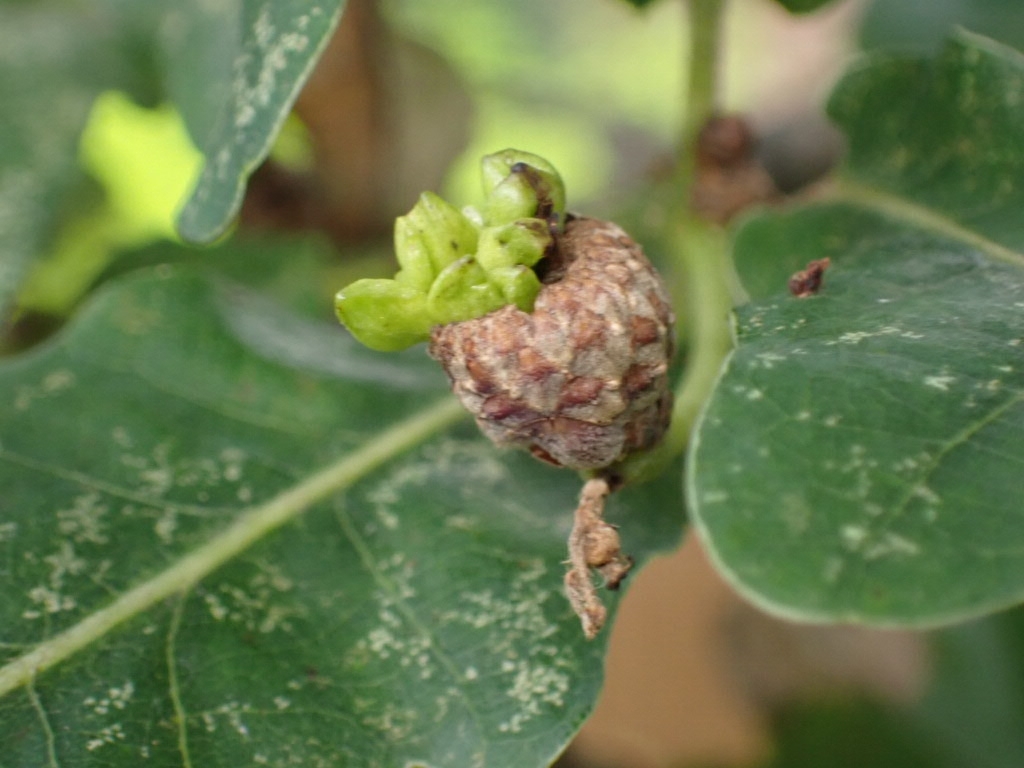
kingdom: Animalia
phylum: Arthropoda
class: Insecta
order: Hymenoptera
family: Cynipidae
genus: Andricus
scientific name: Andricus quercuscalicis
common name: Knopper gall
